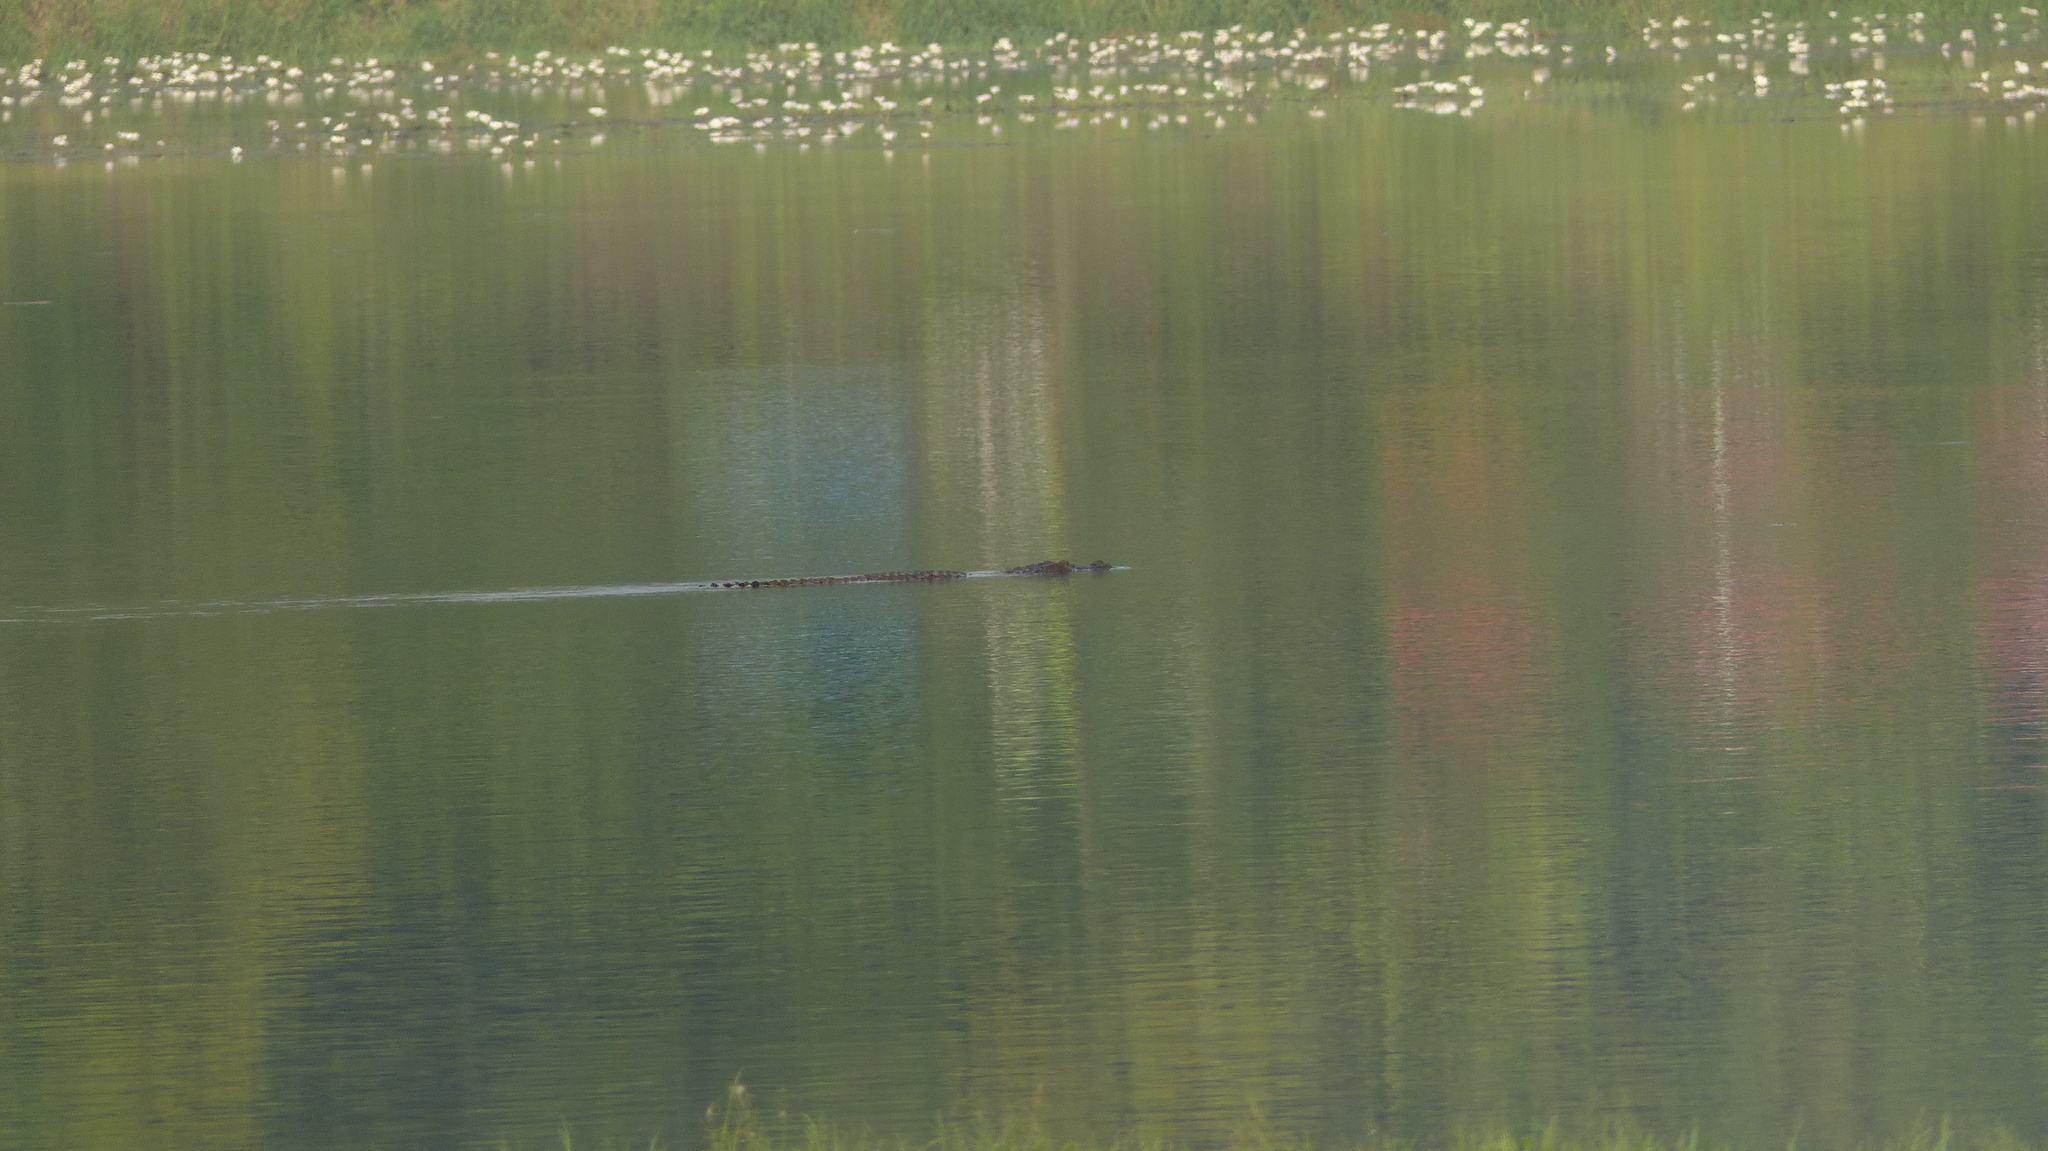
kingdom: Animalia
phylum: Chordata
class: Crocodylia
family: Crocodylidae
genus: Crocodylus
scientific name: Crocodylus palustris
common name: Mugger crocodile
